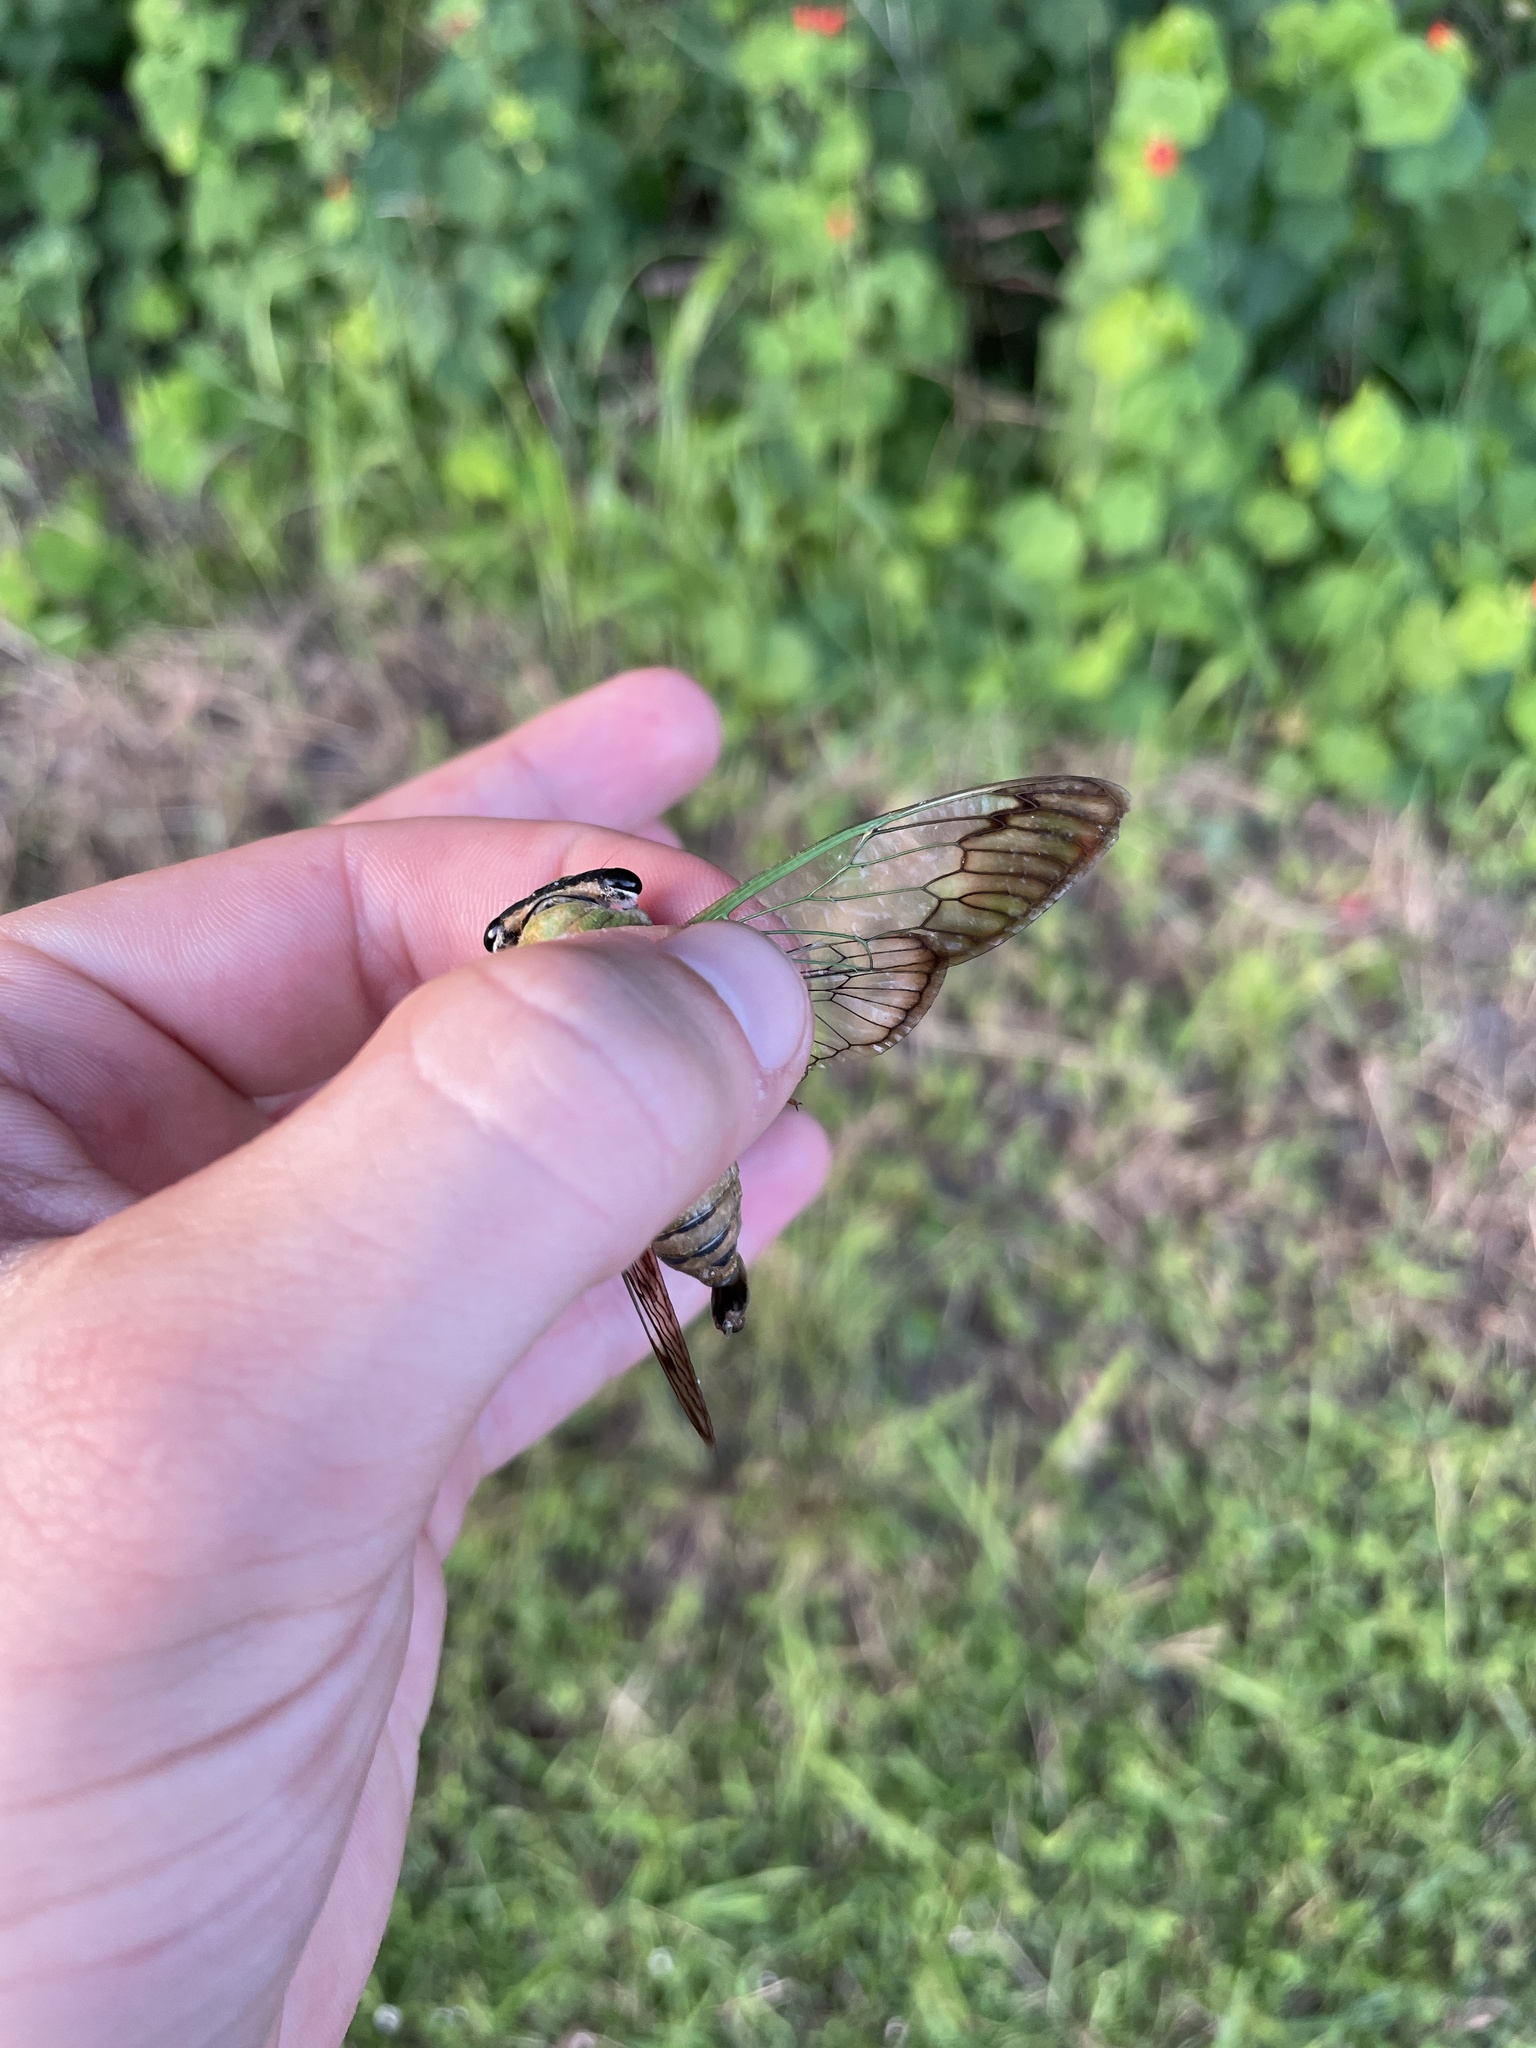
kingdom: Animalia
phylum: Arthropoda
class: Insecta
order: Hemiptera
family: Cicadidae
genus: Neotibicen
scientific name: Neotibicen superbus
